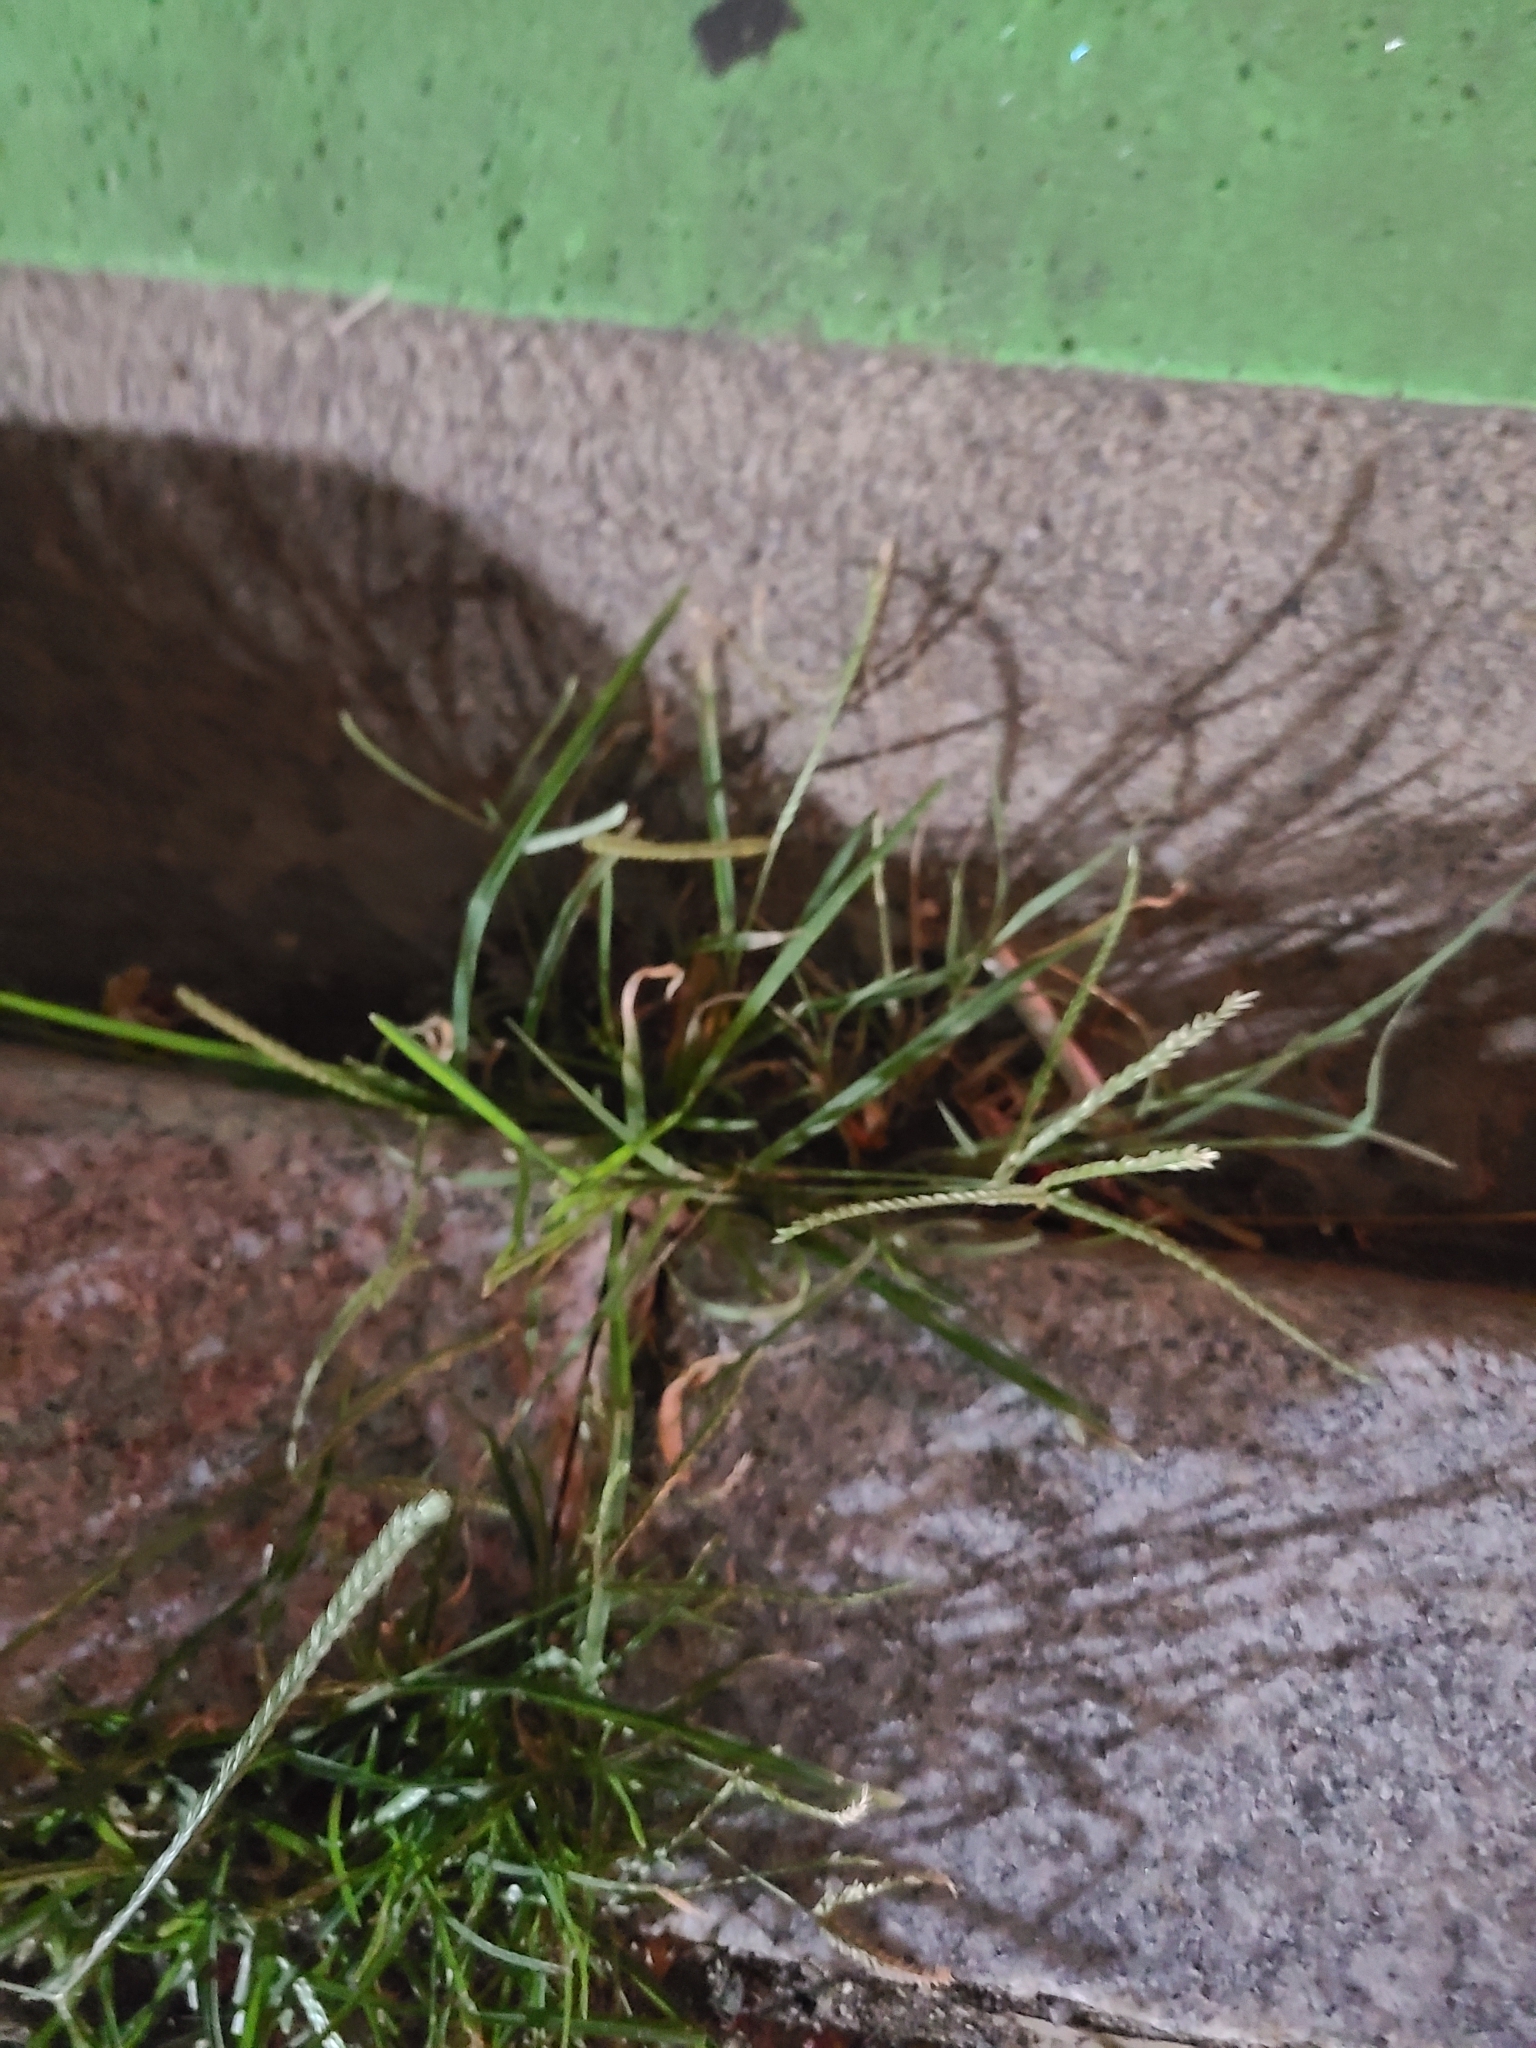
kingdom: Plantae
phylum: Tracheophyta
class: Liliopsida
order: Poales
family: Poaceae
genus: Eleusine
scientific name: Eleusine indica
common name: Yard-grass
